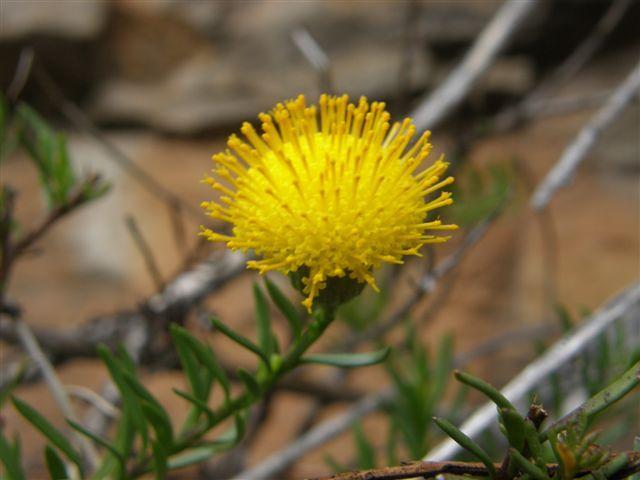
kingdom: Plantae
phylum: Tracheophyta
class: Magnoliopsida
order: Asterales
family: Asteraceae
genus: Pentatrichia
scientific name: Pentatrichia integra
